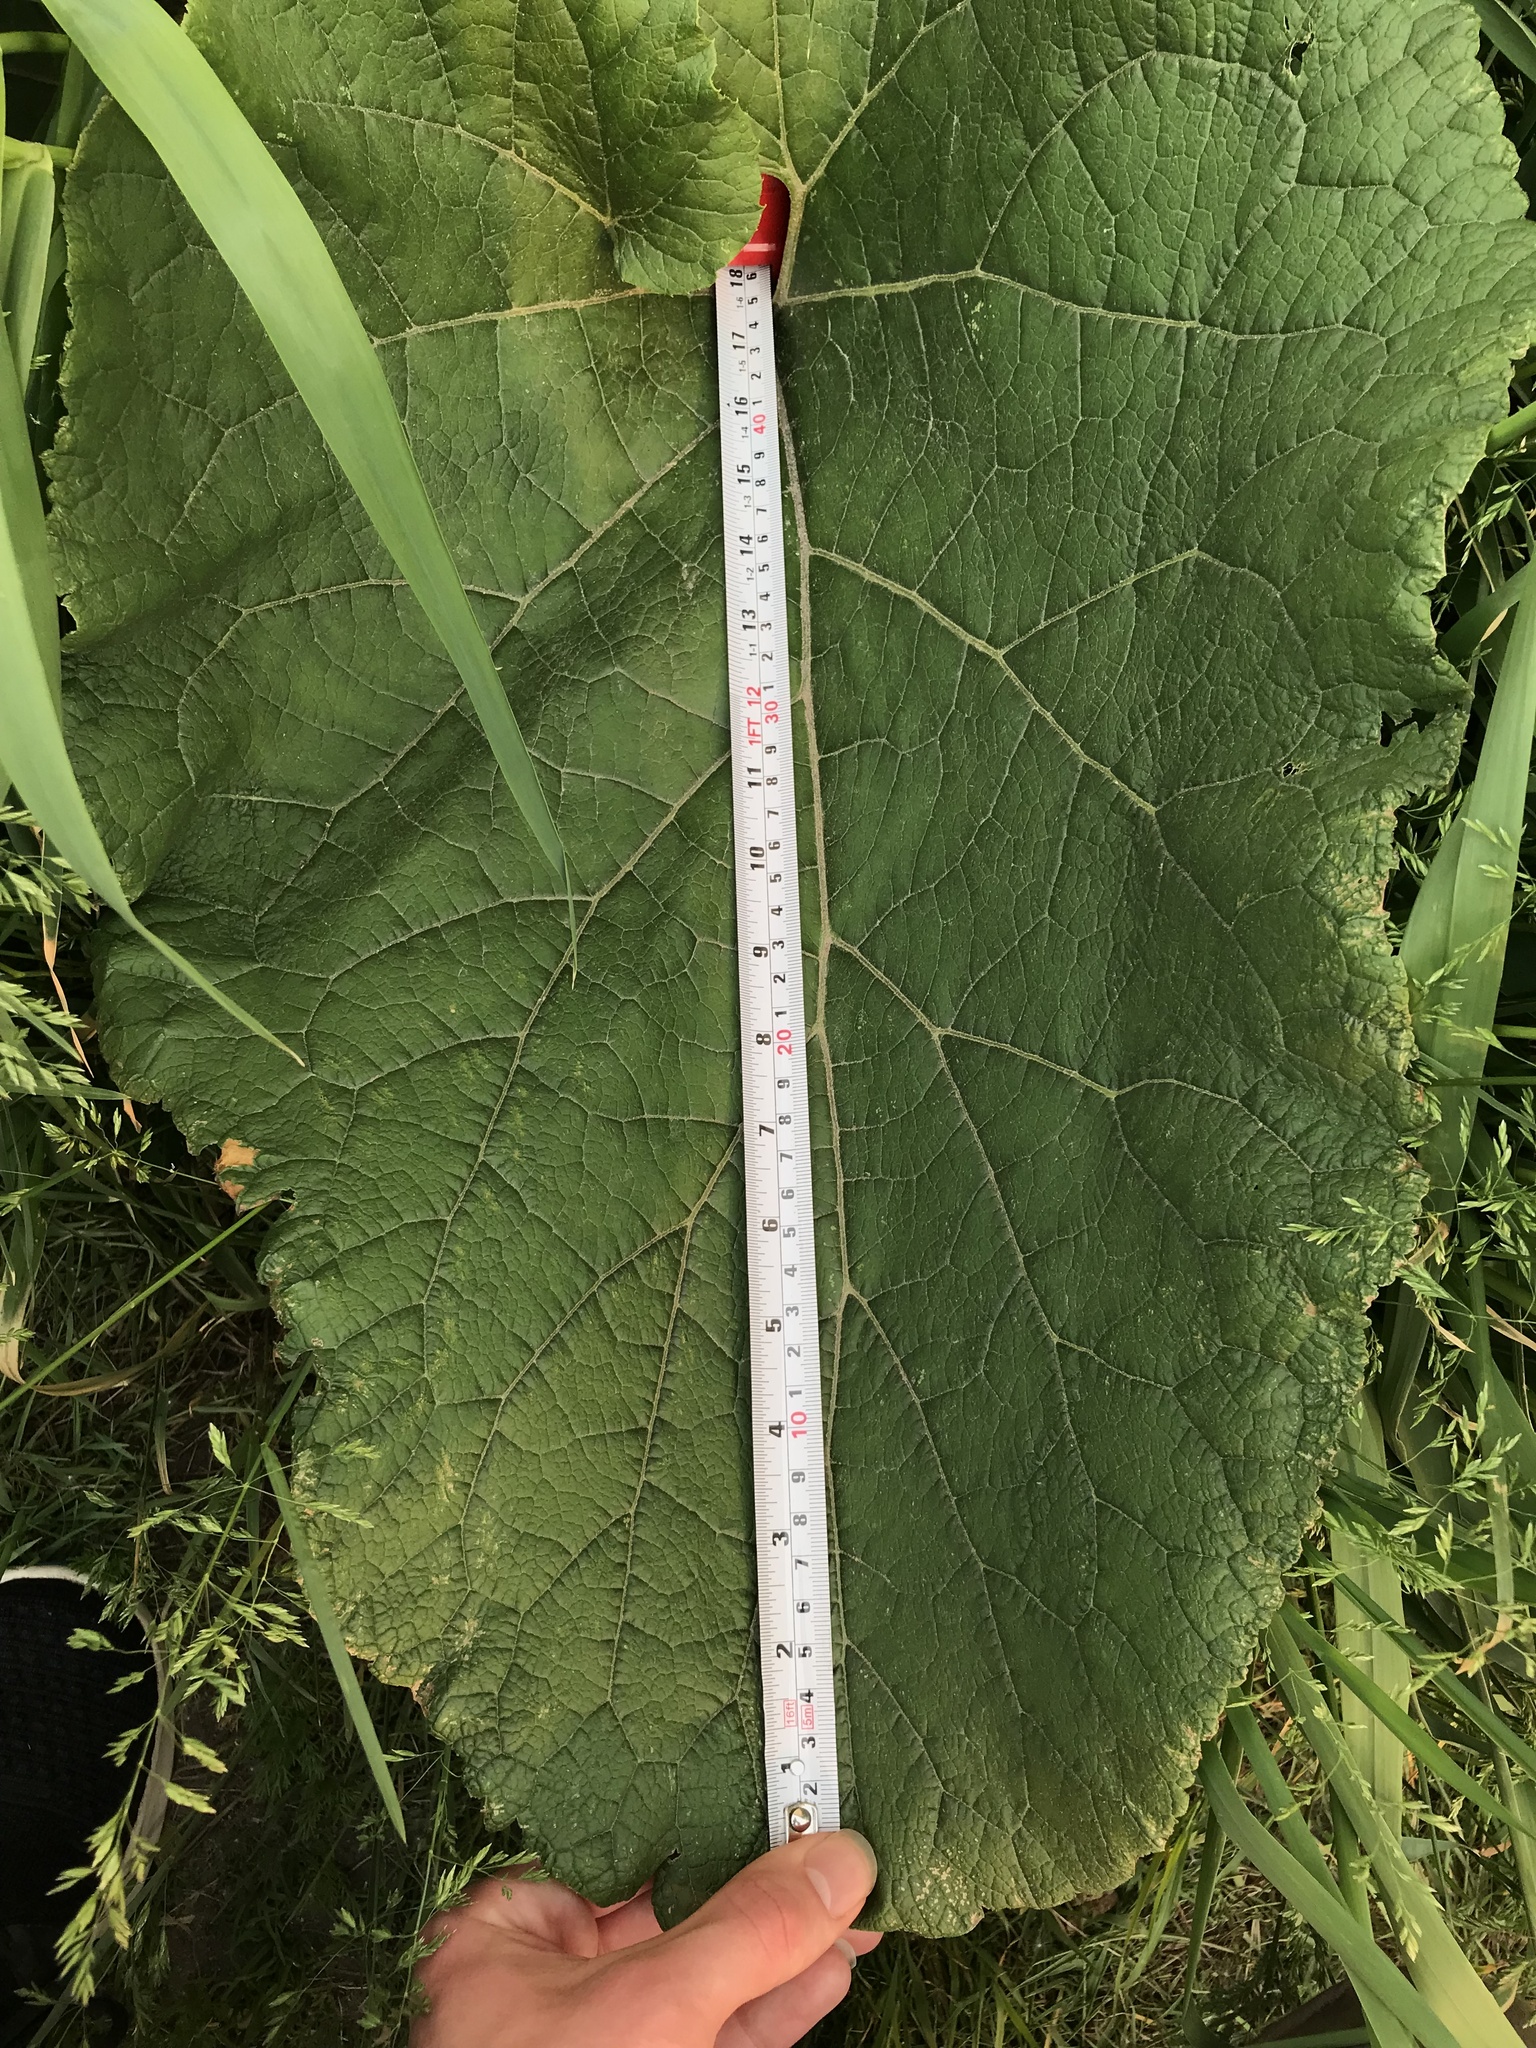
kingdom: Plantae
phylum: Tracheophyta
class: Magnoliopsida
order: Asterales
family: Asteraceae
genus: Arctium
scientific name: Arctium lappa
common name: Greater burdock
